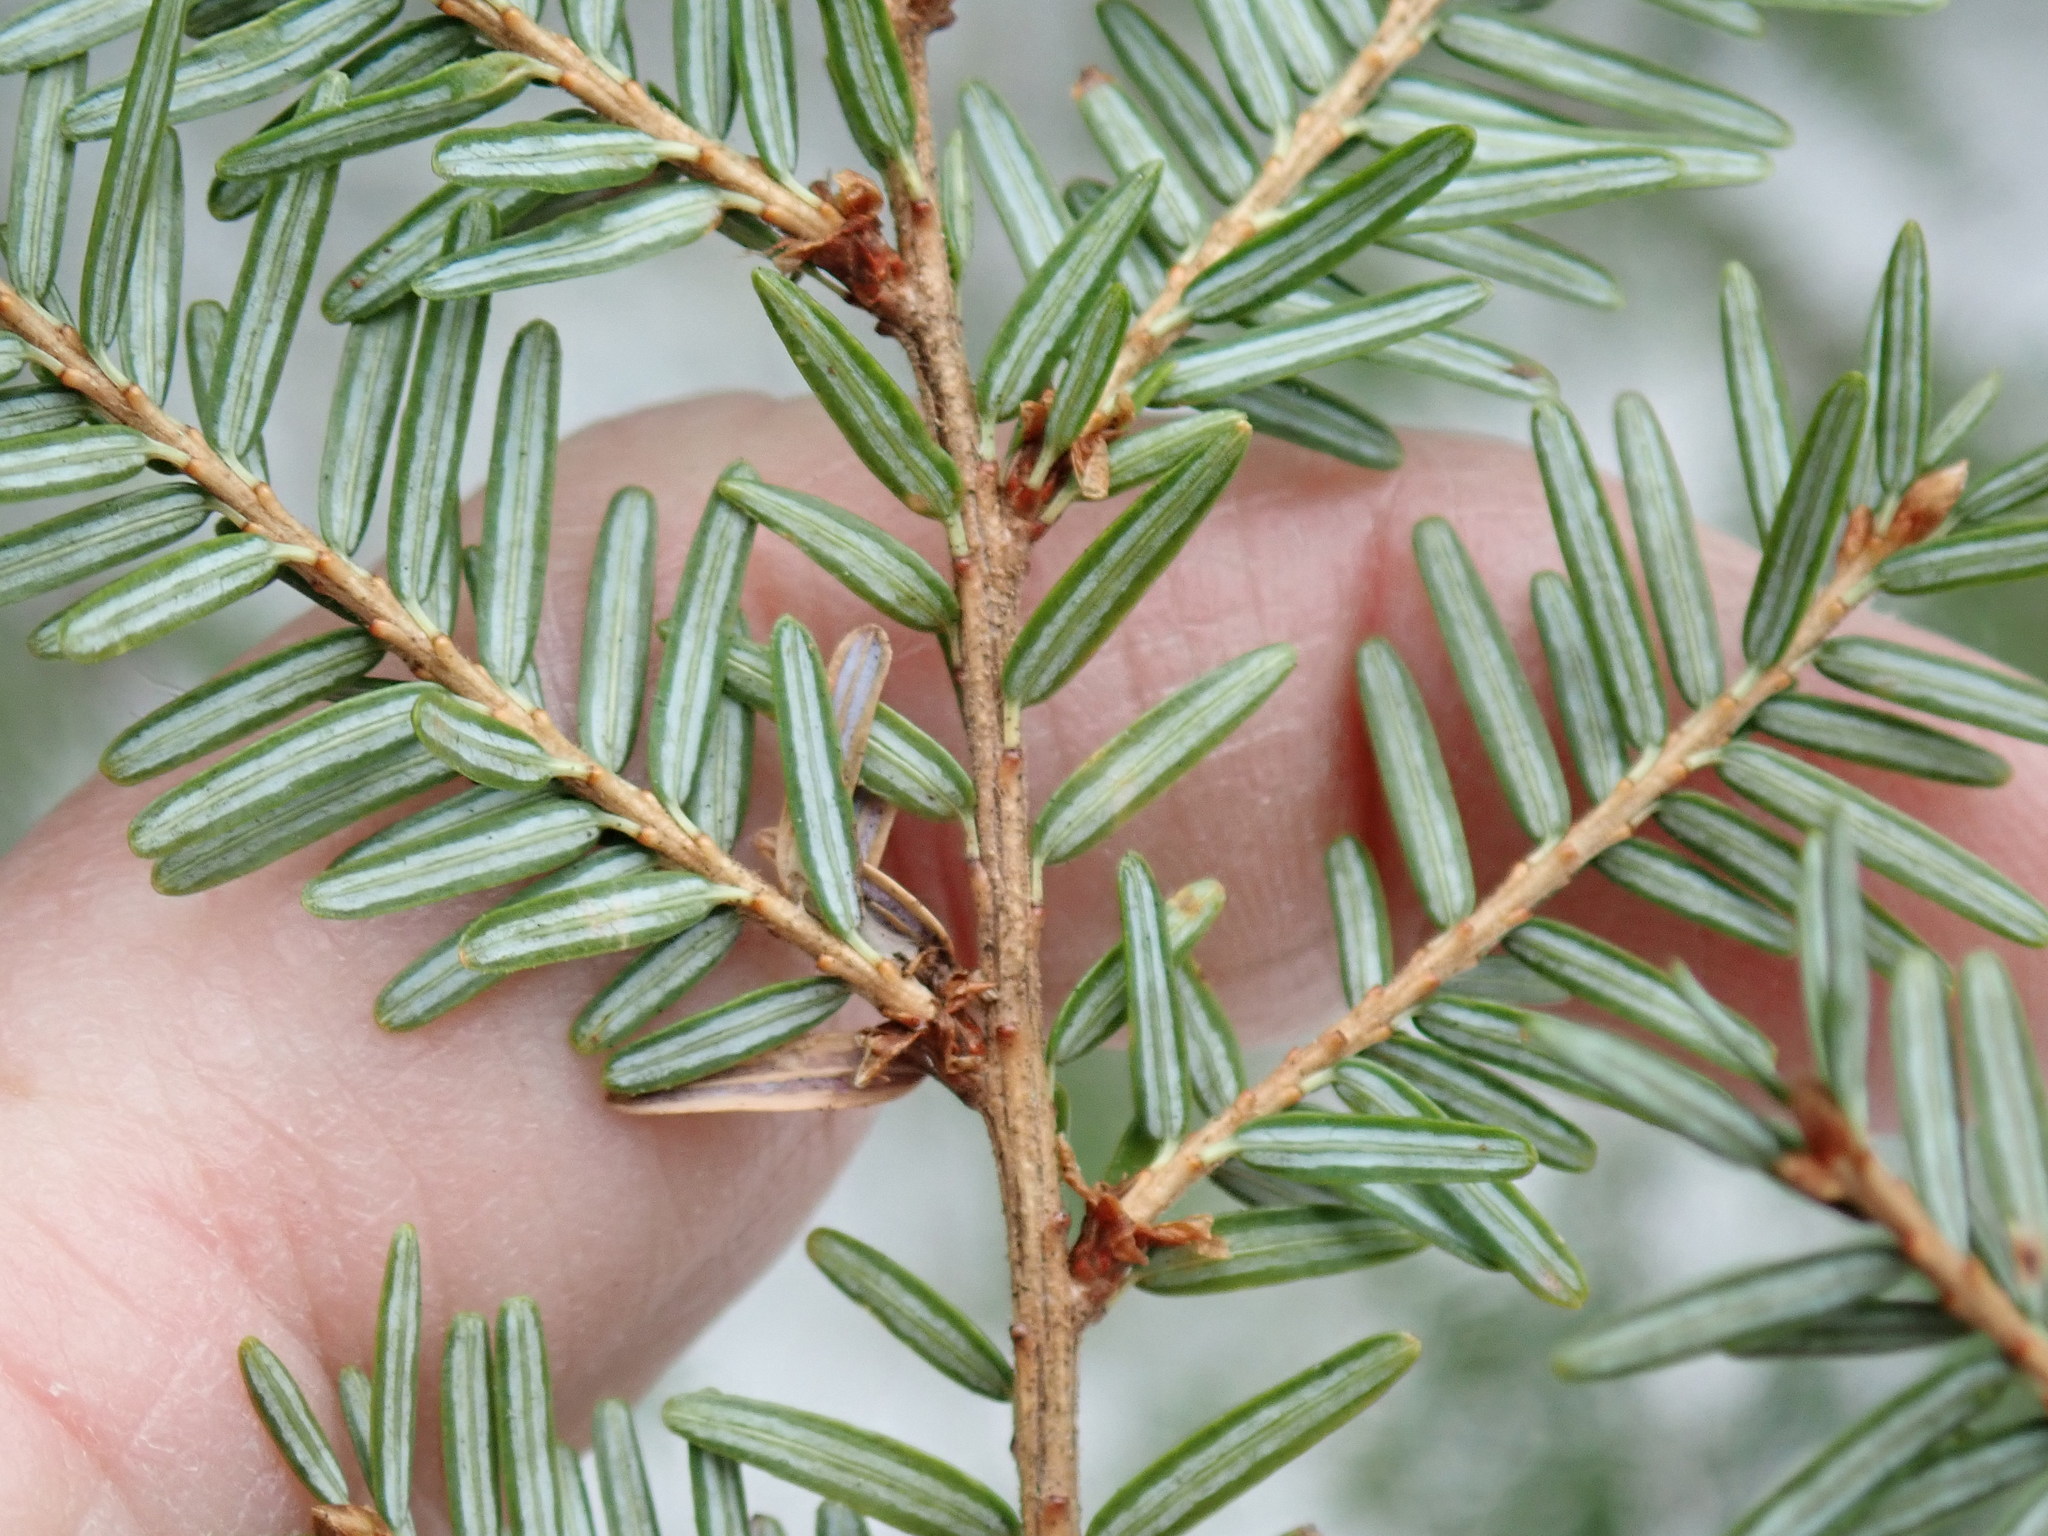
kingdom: Plantae
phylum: Tracheophyta
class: Pinopsida
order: Pinales
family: Pinaceae
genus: Tsuga
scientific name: Tsuga canadensis
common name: Eastern hemlock
